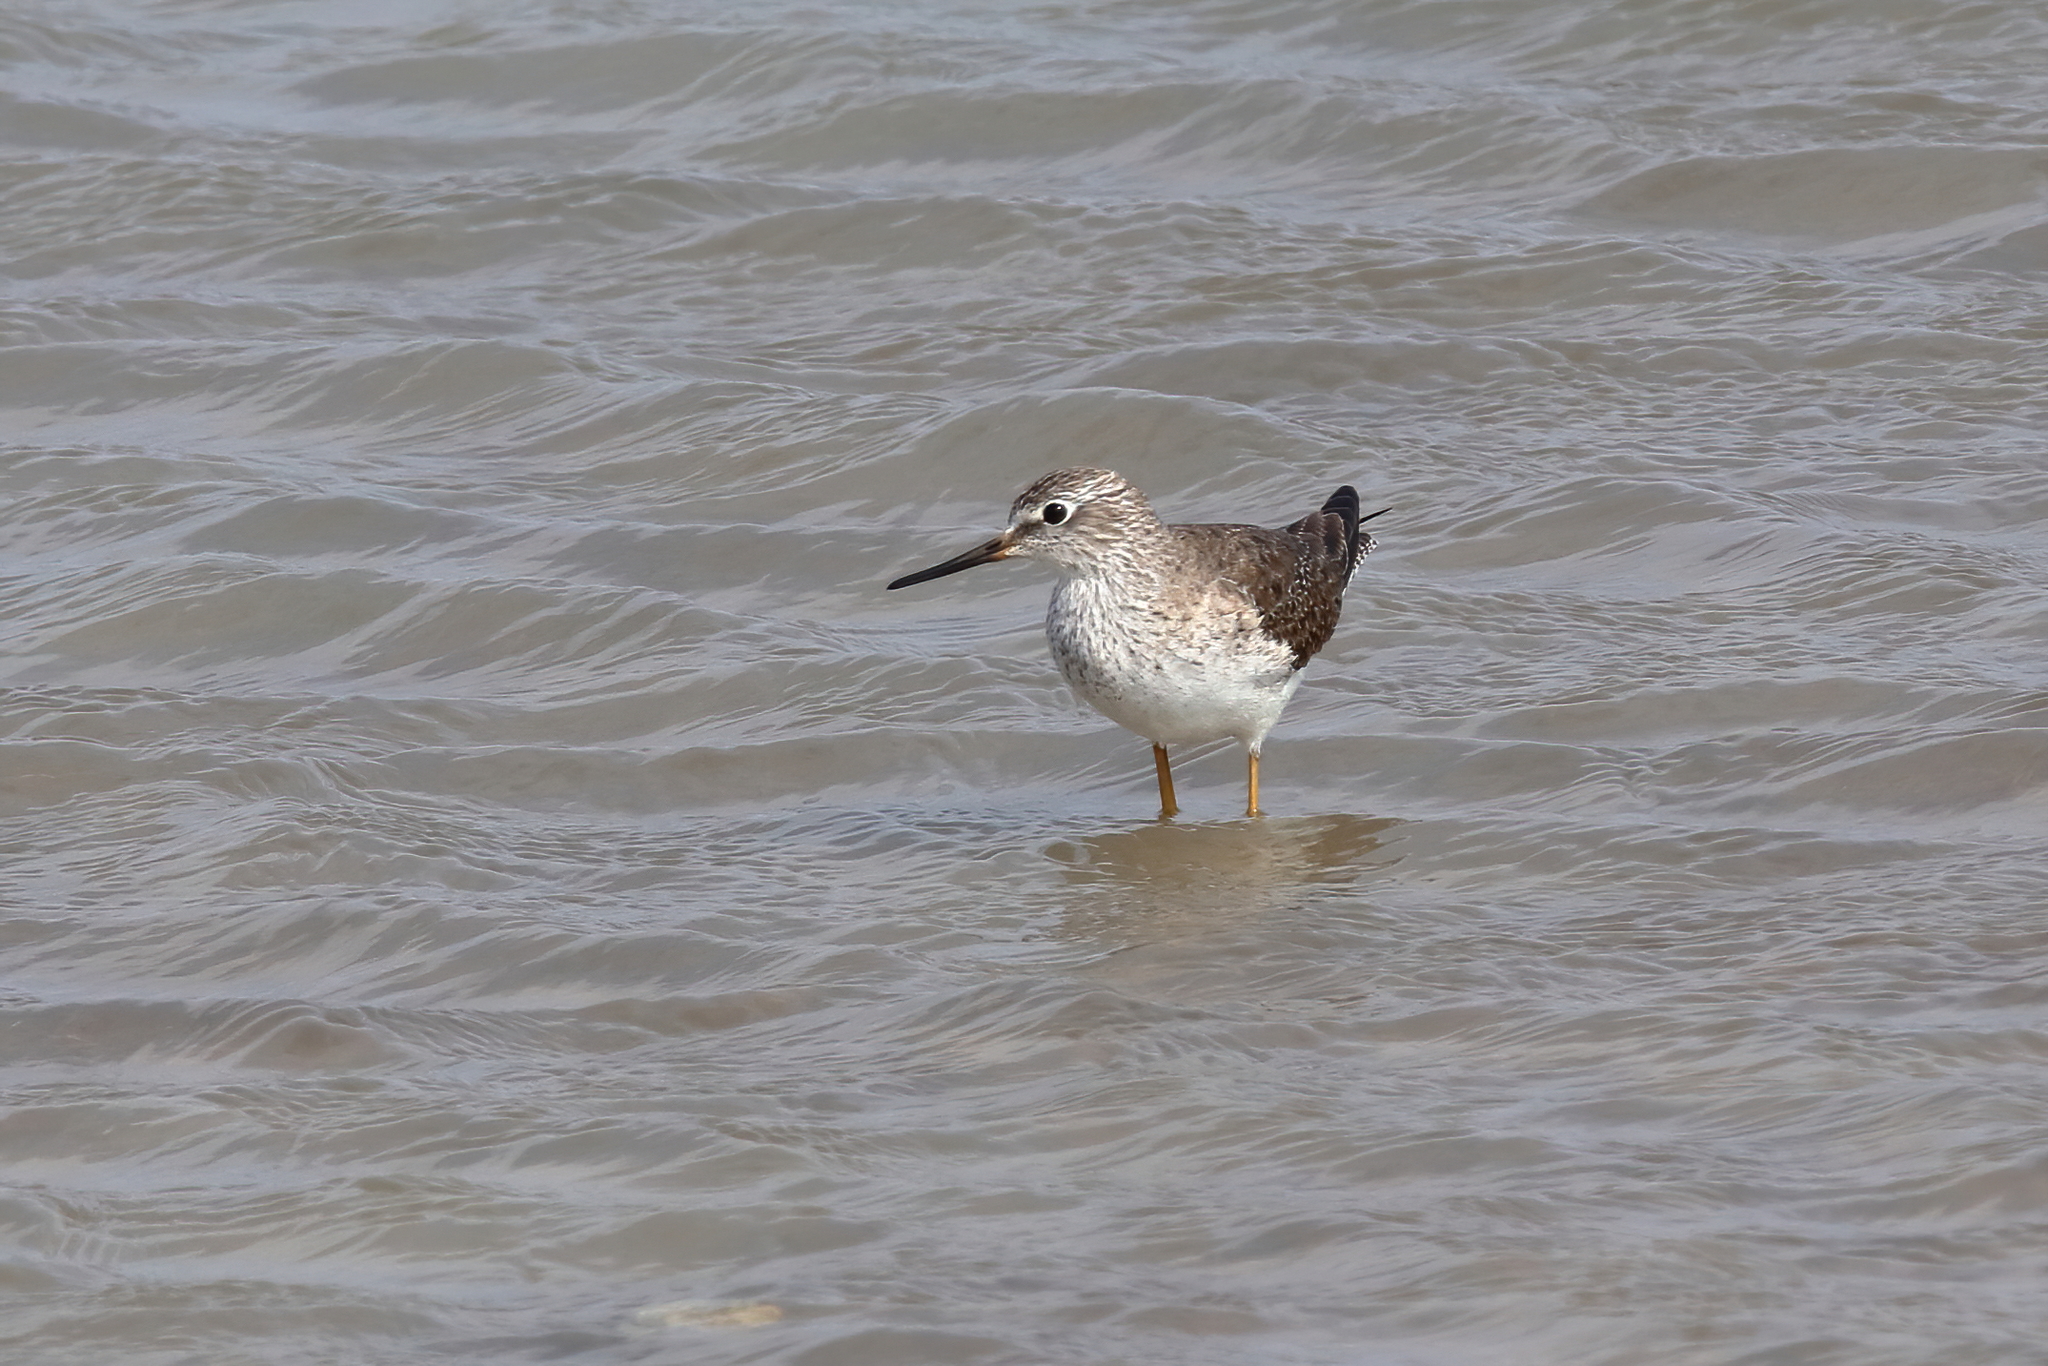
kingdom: Animalia
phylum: Chordata
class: Aves
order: Charadriiformes
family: Scolopacidae
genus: Tringa
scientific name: Tringa flavipes
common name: Lesser yellowlegs
